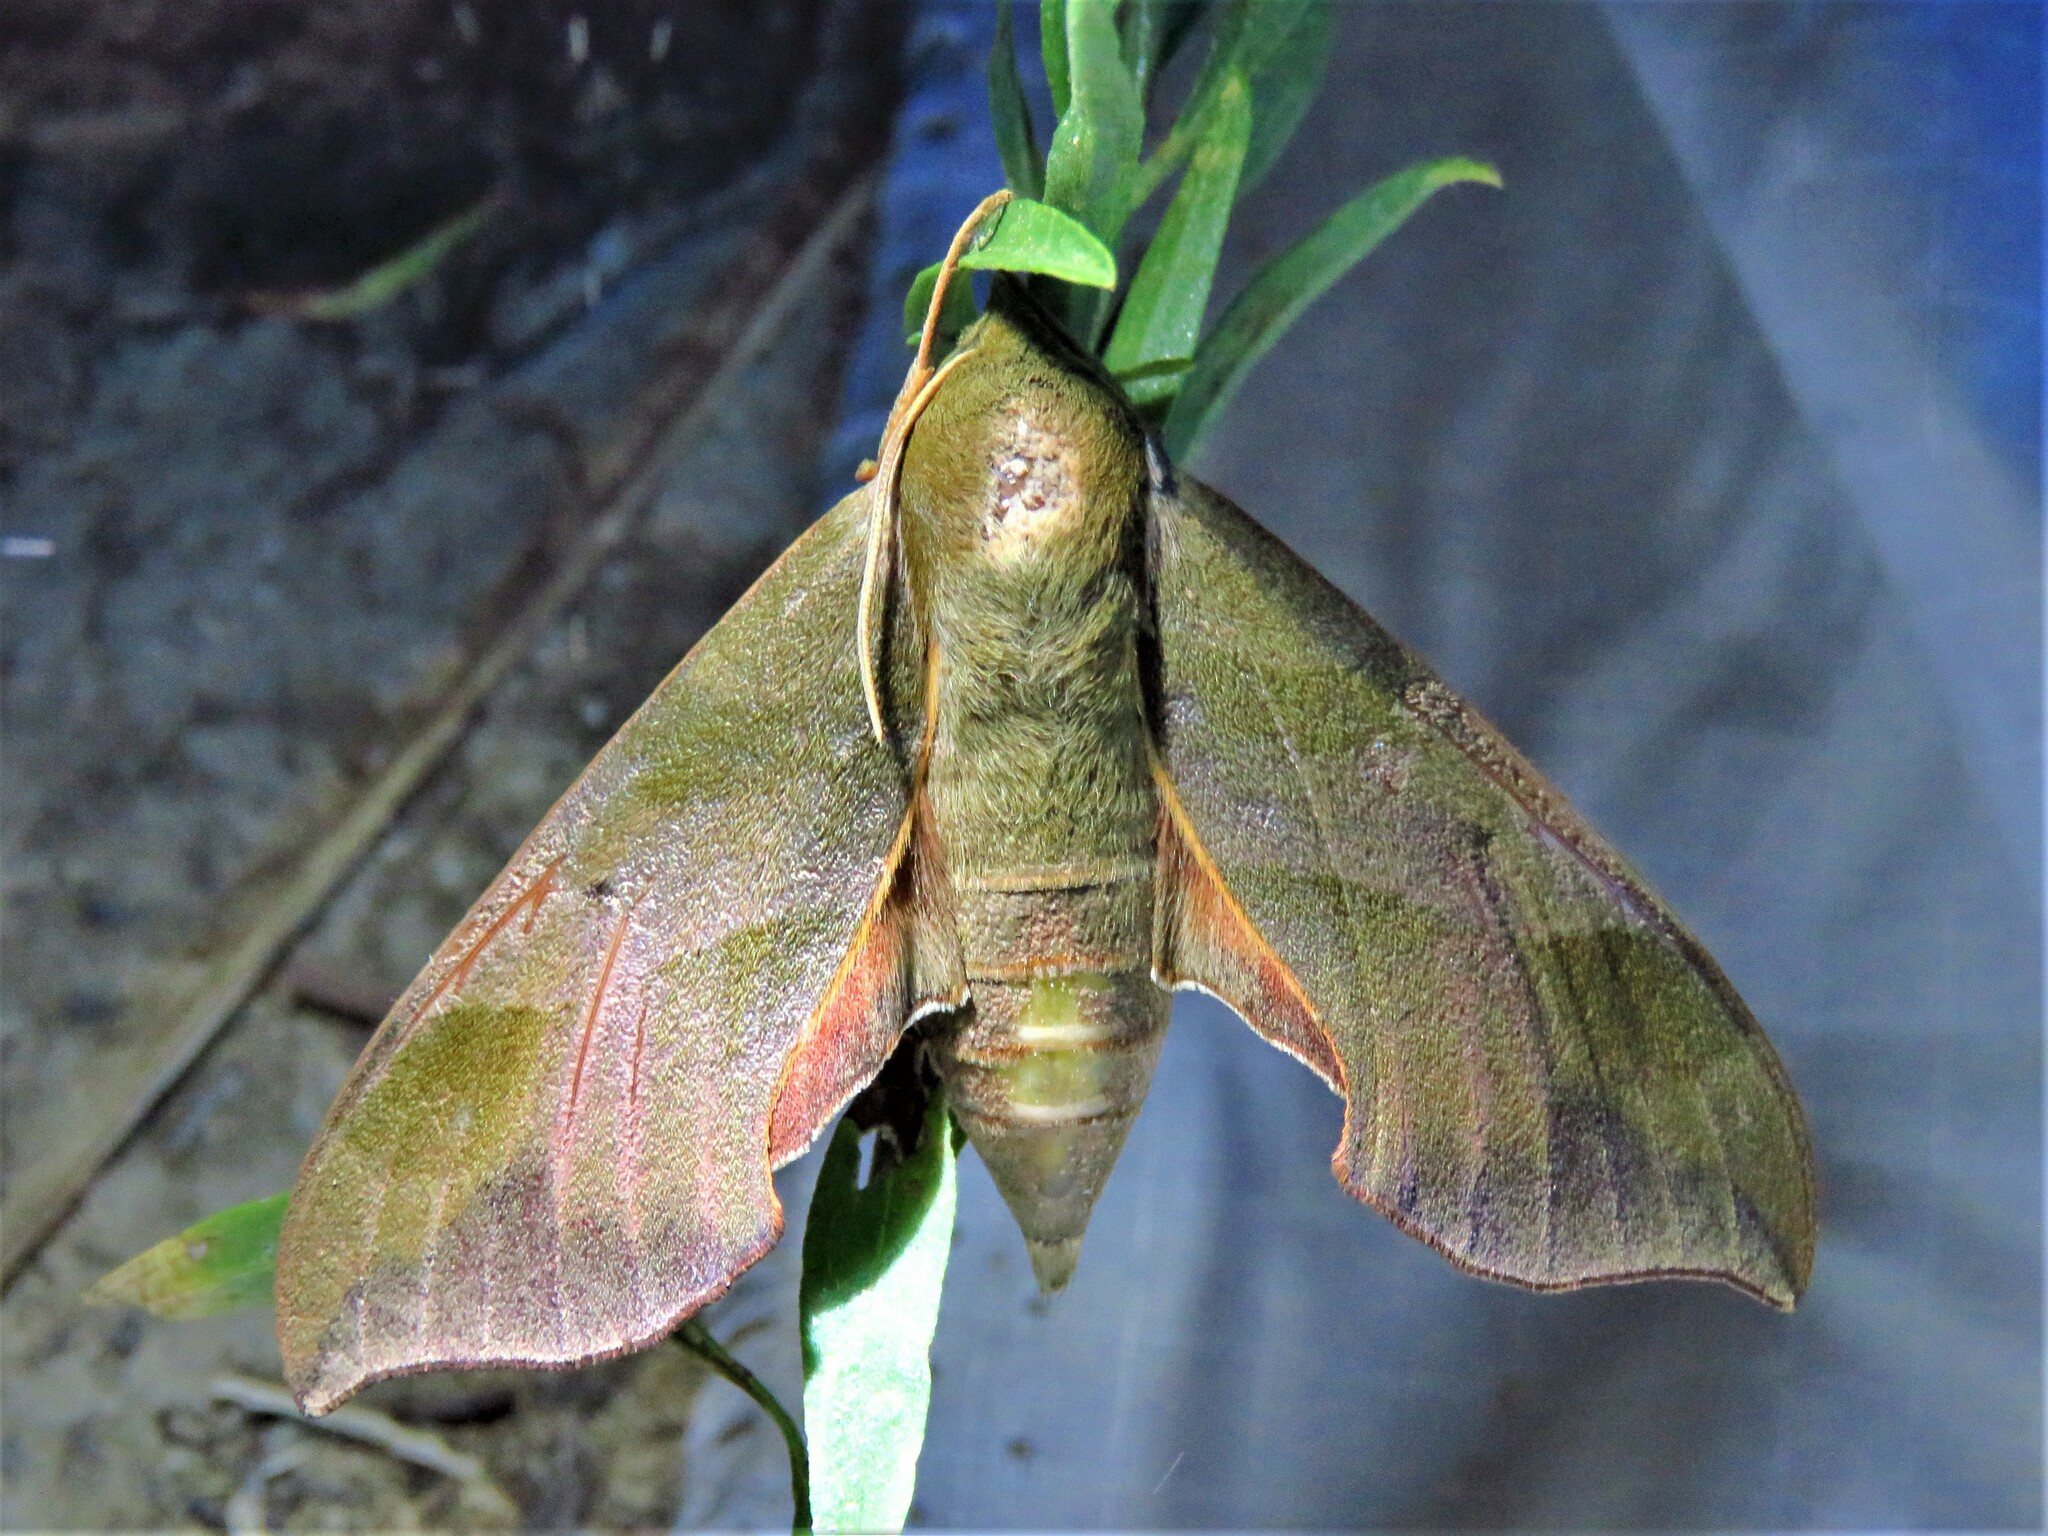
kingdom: Animalia
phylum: Arthropoda
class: Insecta
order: Lepidoptera
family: Sphingidae
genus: Darapsa
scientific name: Darapsa myron
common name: Hog sphinx
